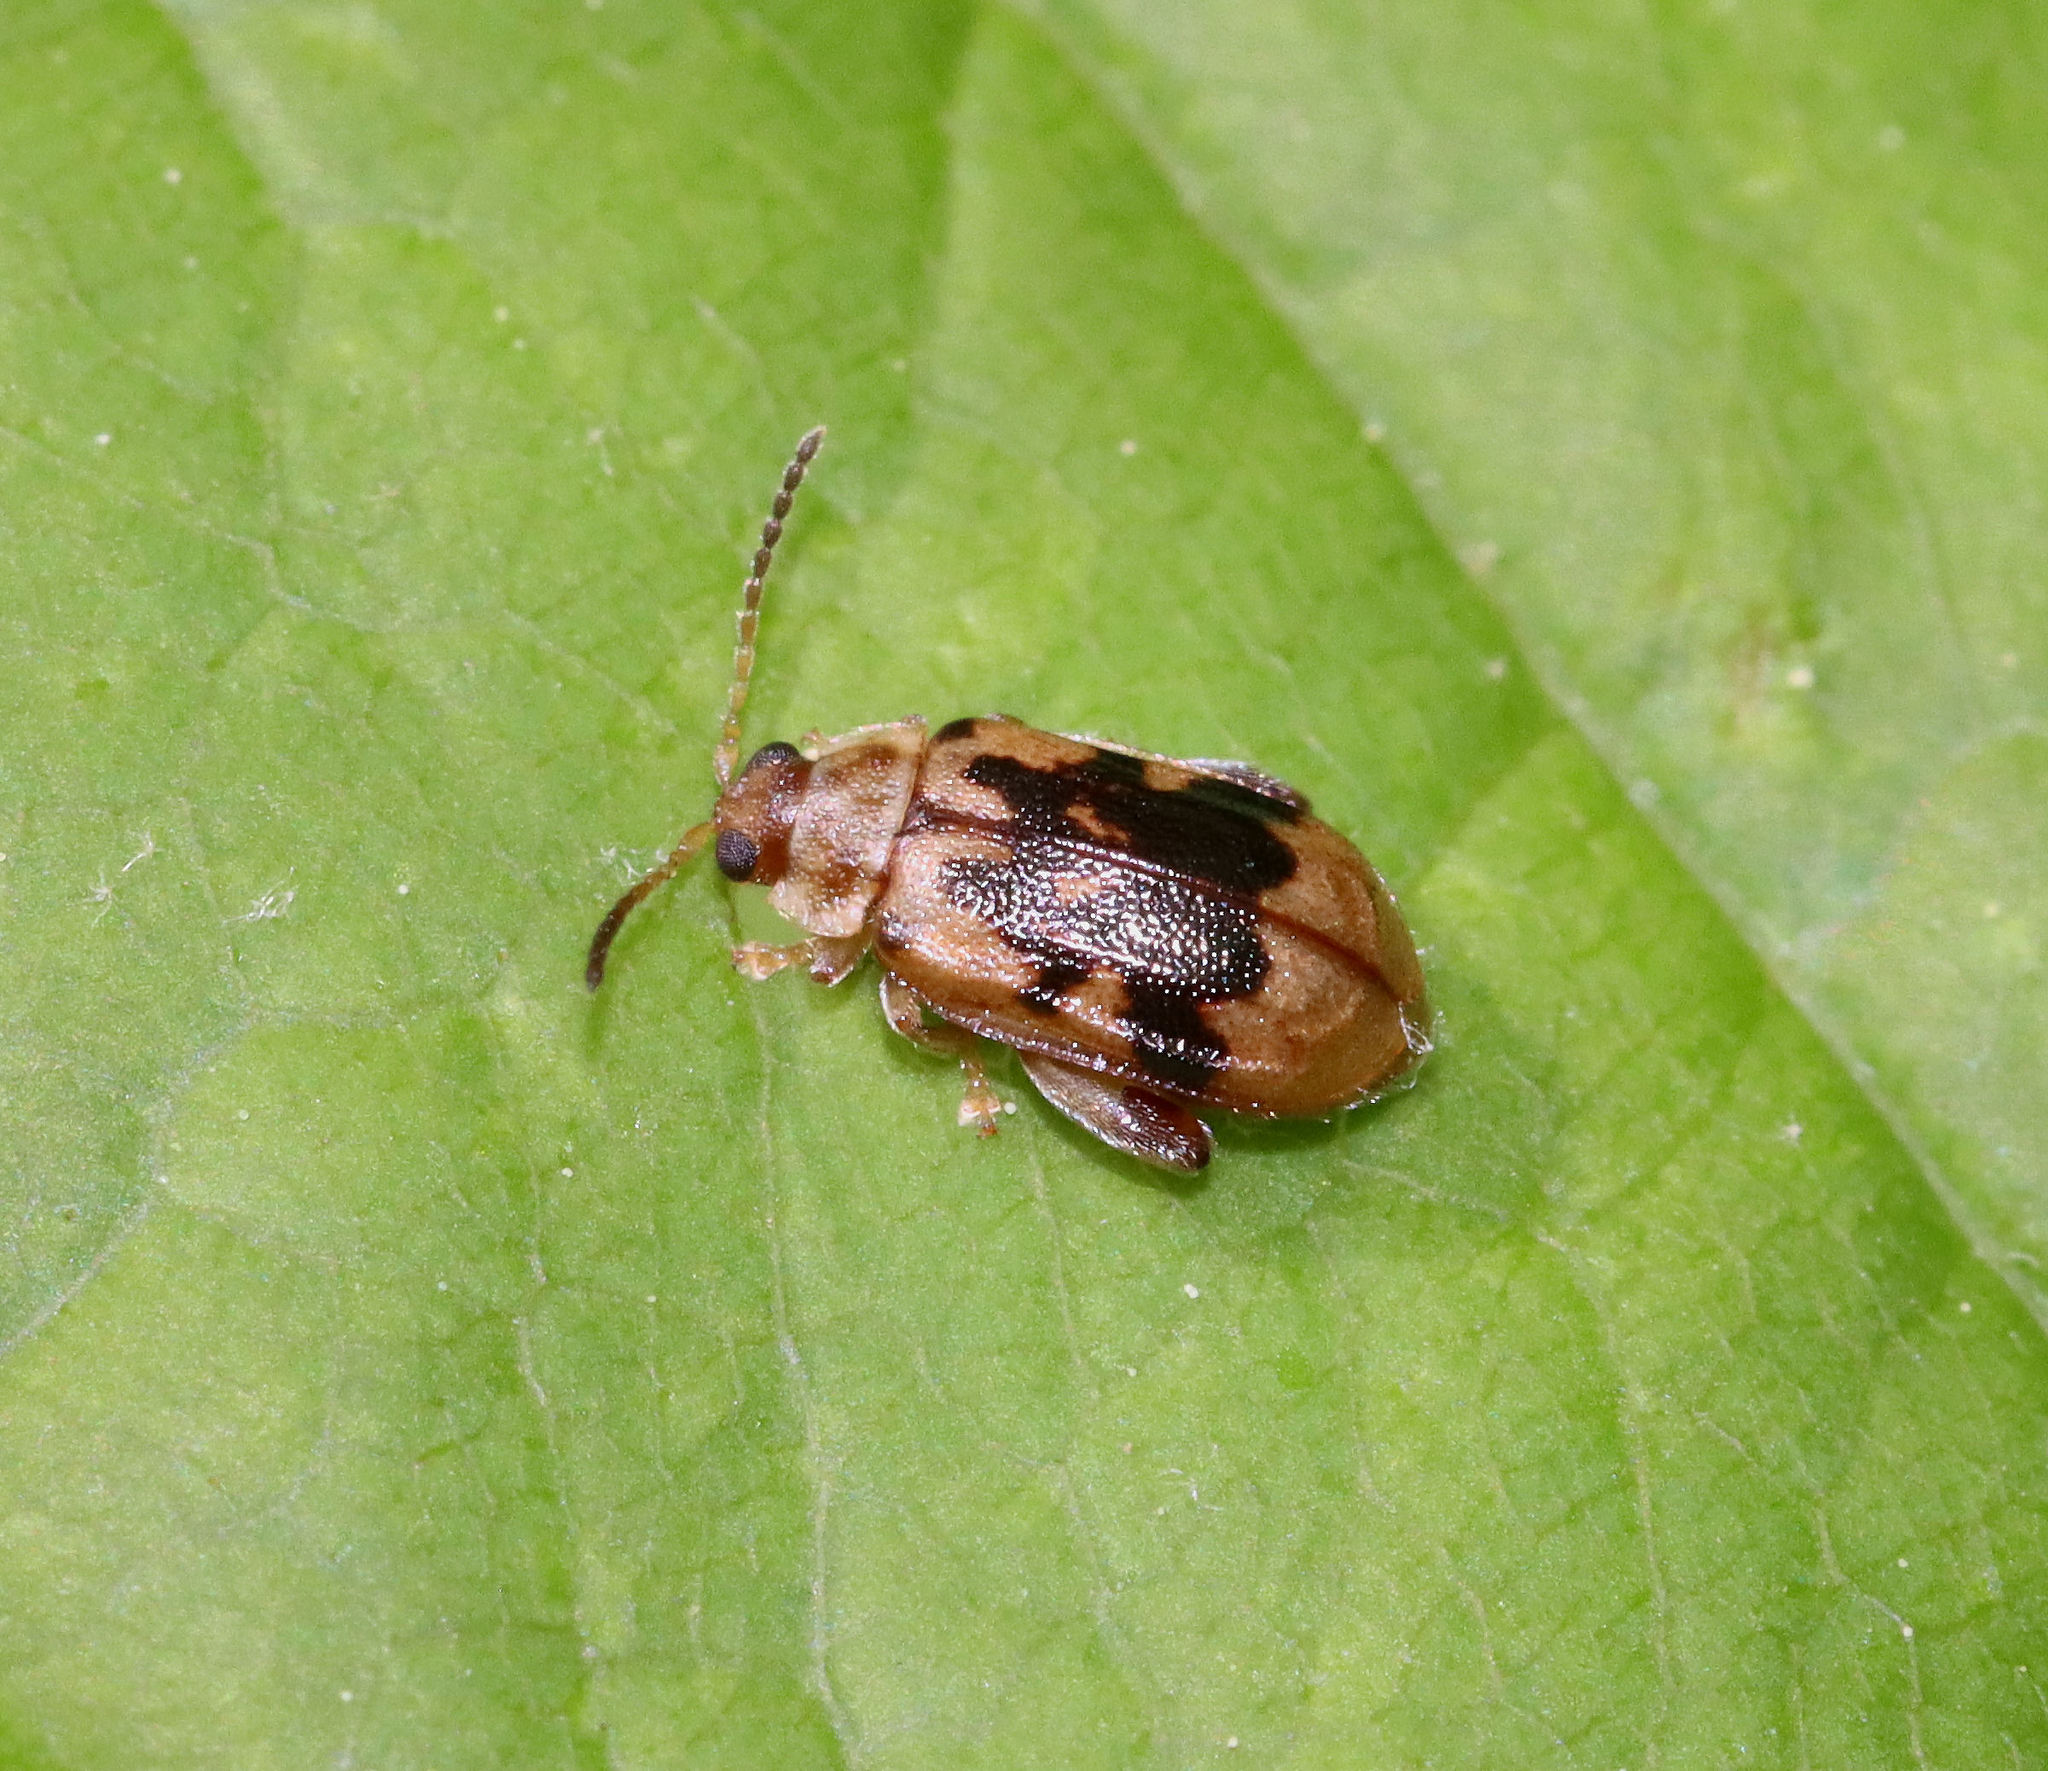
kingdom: Animalia
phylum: Arthropoda
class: Insecta
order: Coleoptera
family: Chrysomelidae
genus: Capraita
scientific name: Capraita sexmaculata
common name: Charlie brown flea beetle
